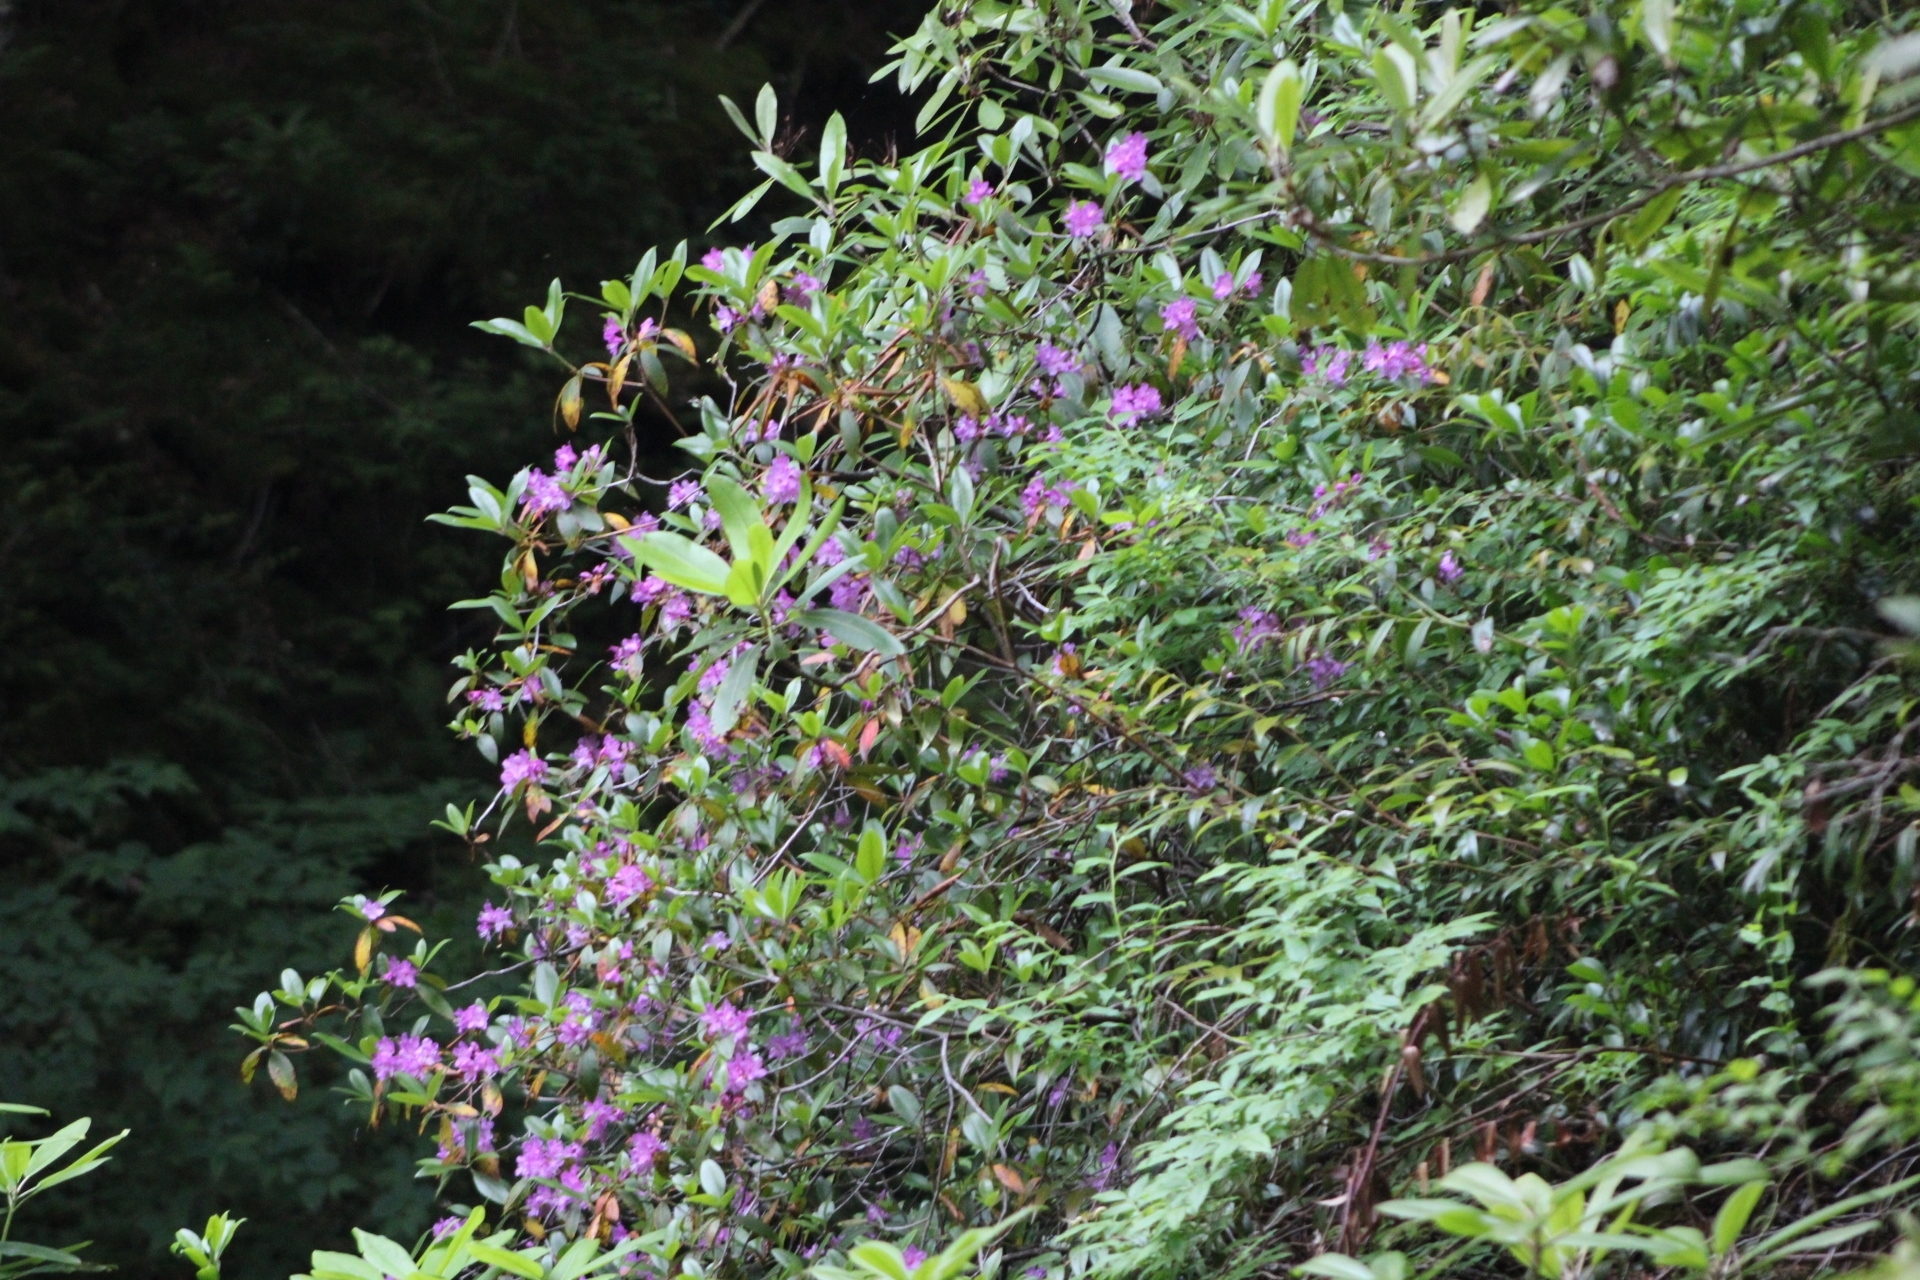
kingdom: Plantae
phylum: Tracheophyta
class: Magnoliopsida
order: Ericales
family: Ericaceae
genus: Rhododendron
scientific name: Rhododendron smokianum
